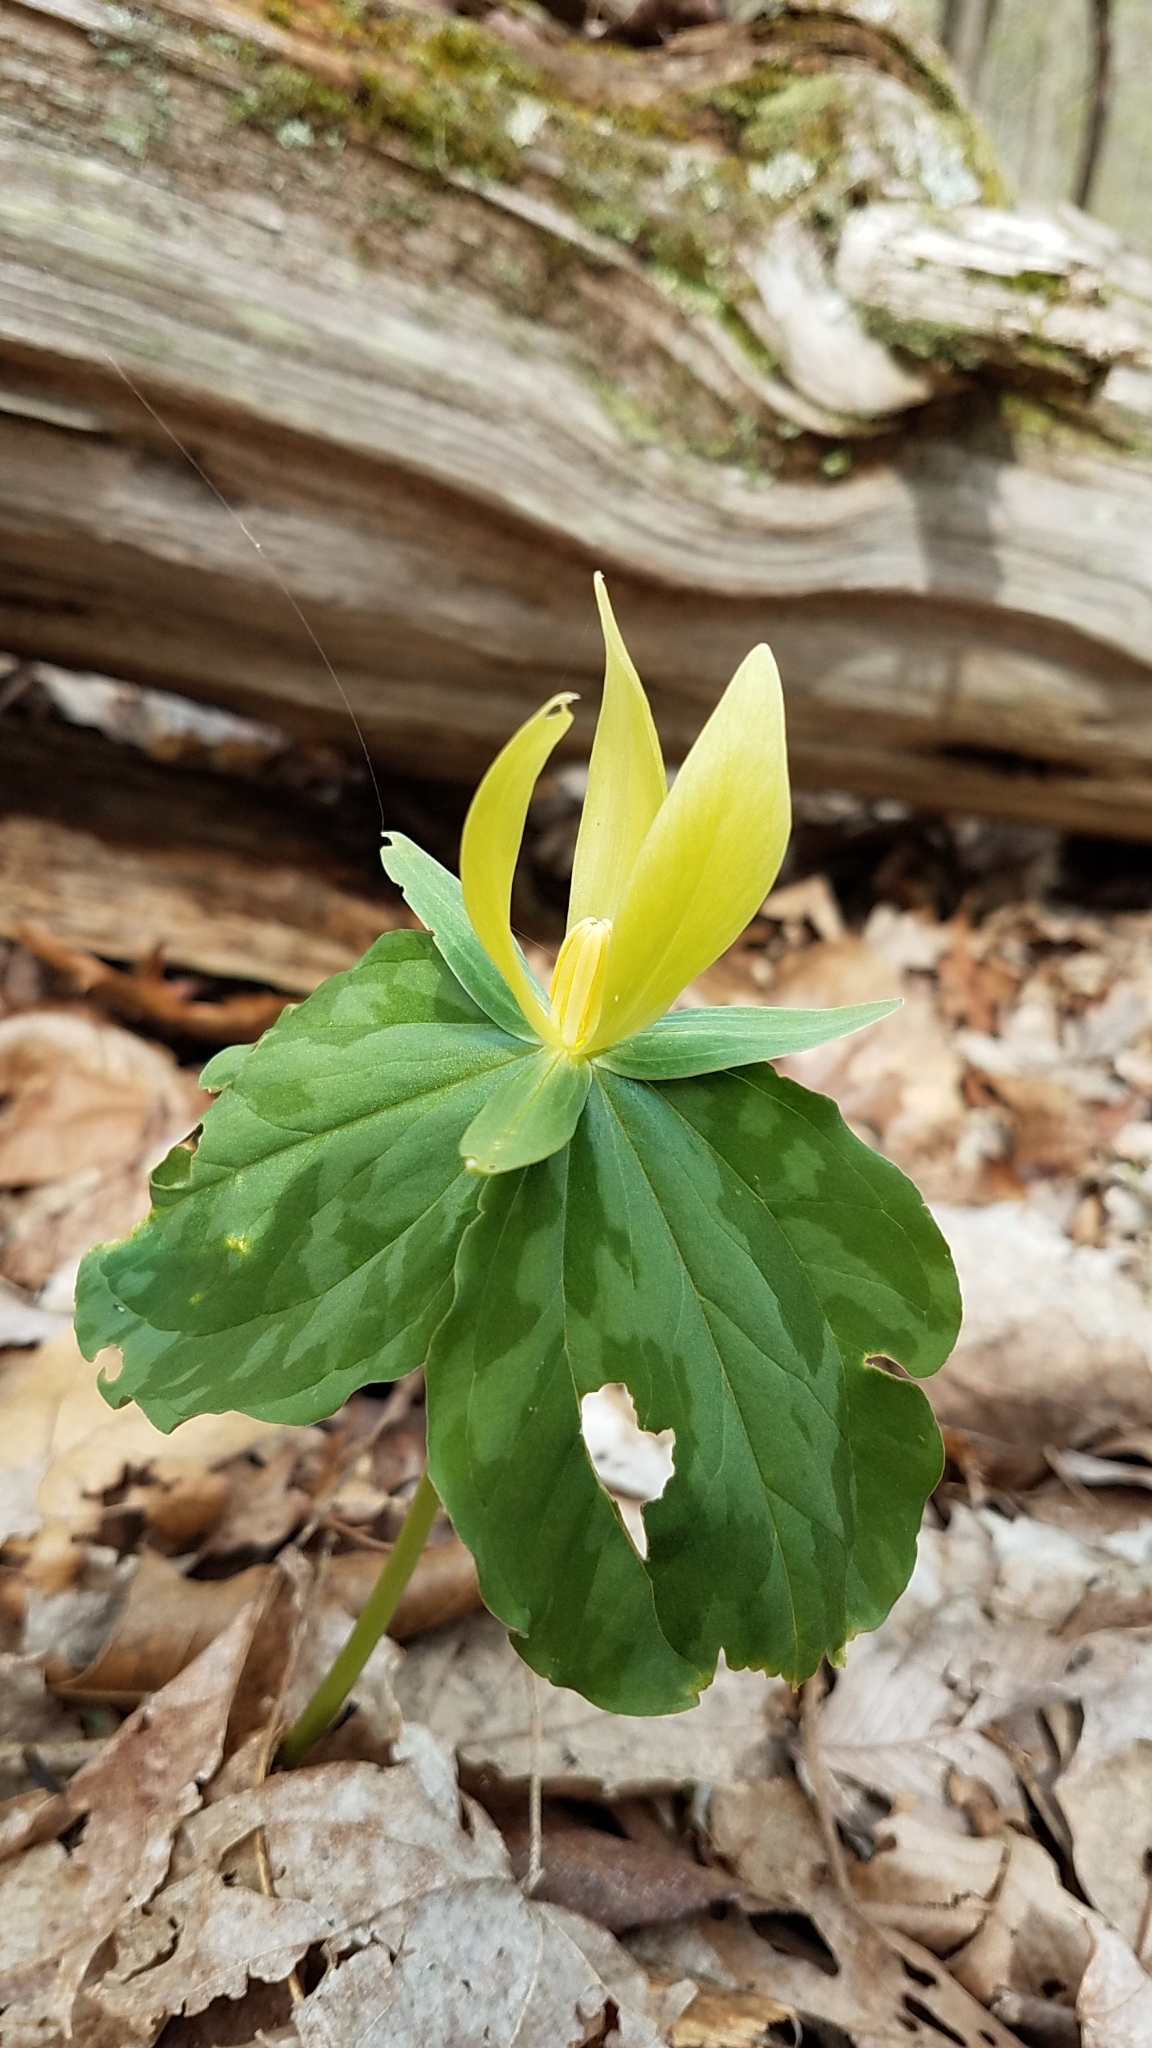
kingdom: Plantae
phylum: Tracheophyta
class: Liliopsida
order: Liliales
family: Melanthiaceae
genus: Trillium
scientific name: Trillium luteum
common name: Wax trillium
